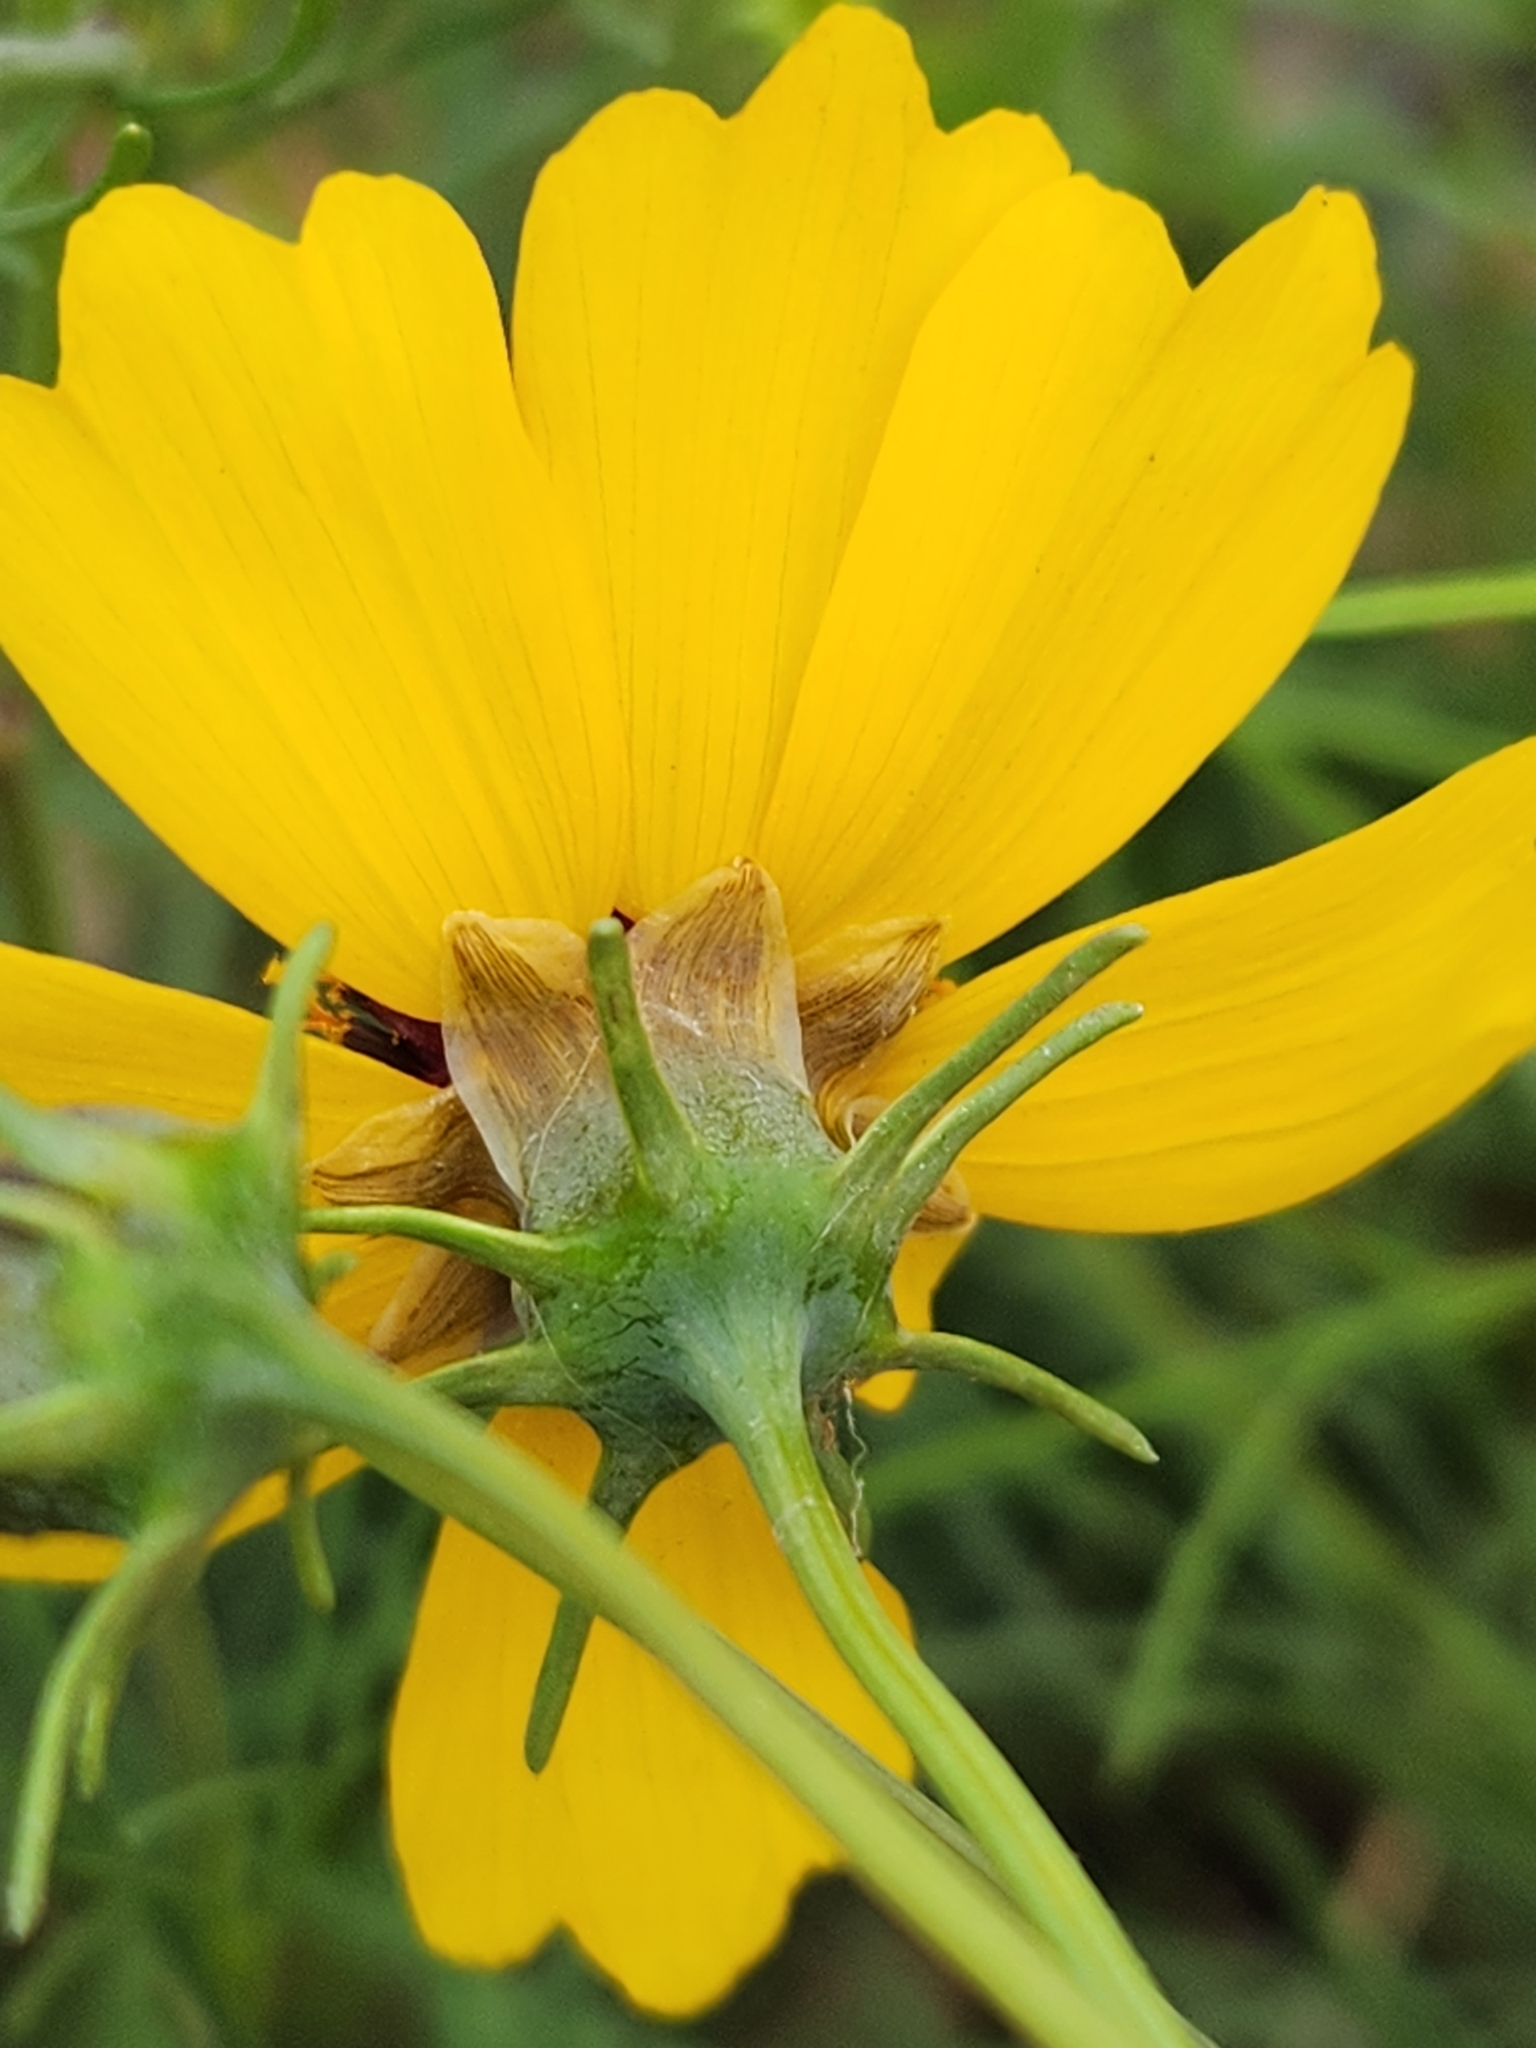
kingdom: Plantae
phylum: Tracheophyta
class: Magnoliopsida
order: Asterales
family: Asteraceae
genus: Thelesperma
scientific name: Thelesperma filifolium
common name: Stiff greenthread
